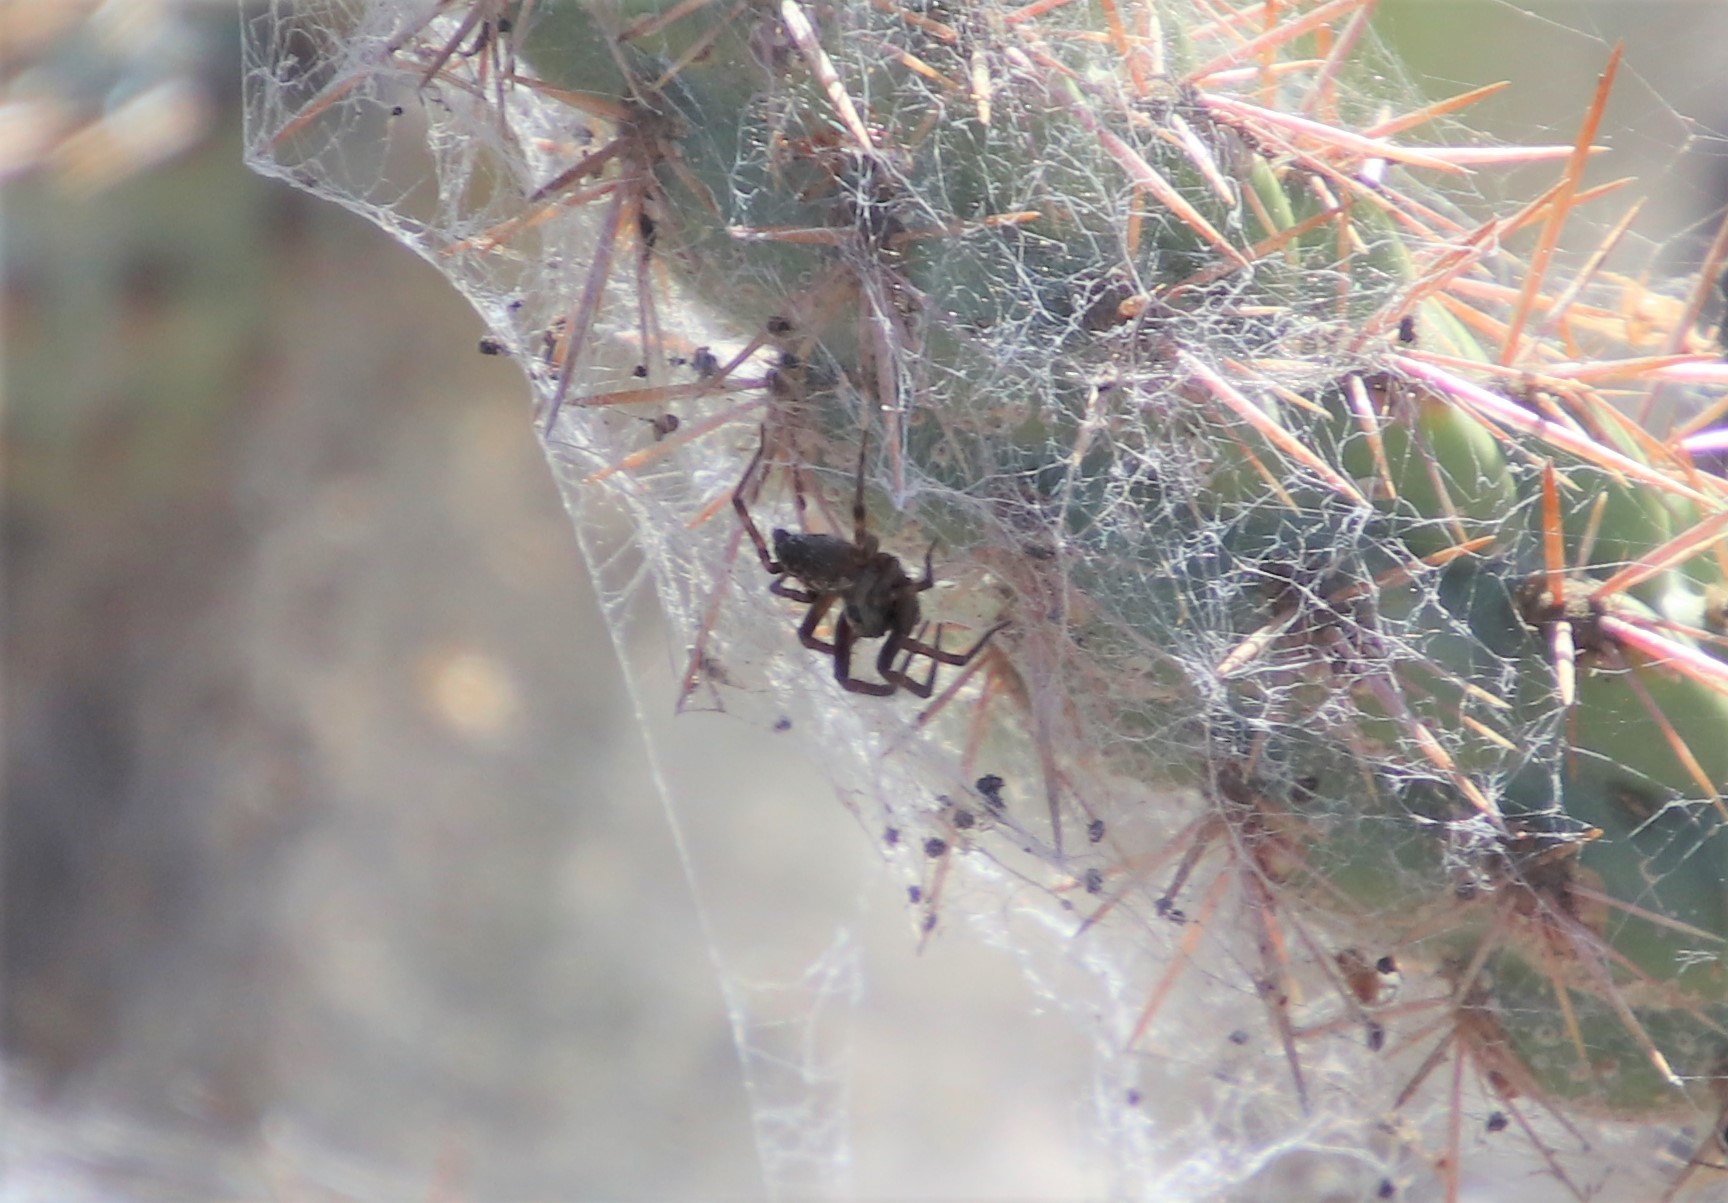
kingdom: Animalia
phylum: Arthropoda
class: Arachnida
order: Araneae
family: Desidae
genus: Badumna
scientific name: Badumna longinqua
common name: Gray house spider
